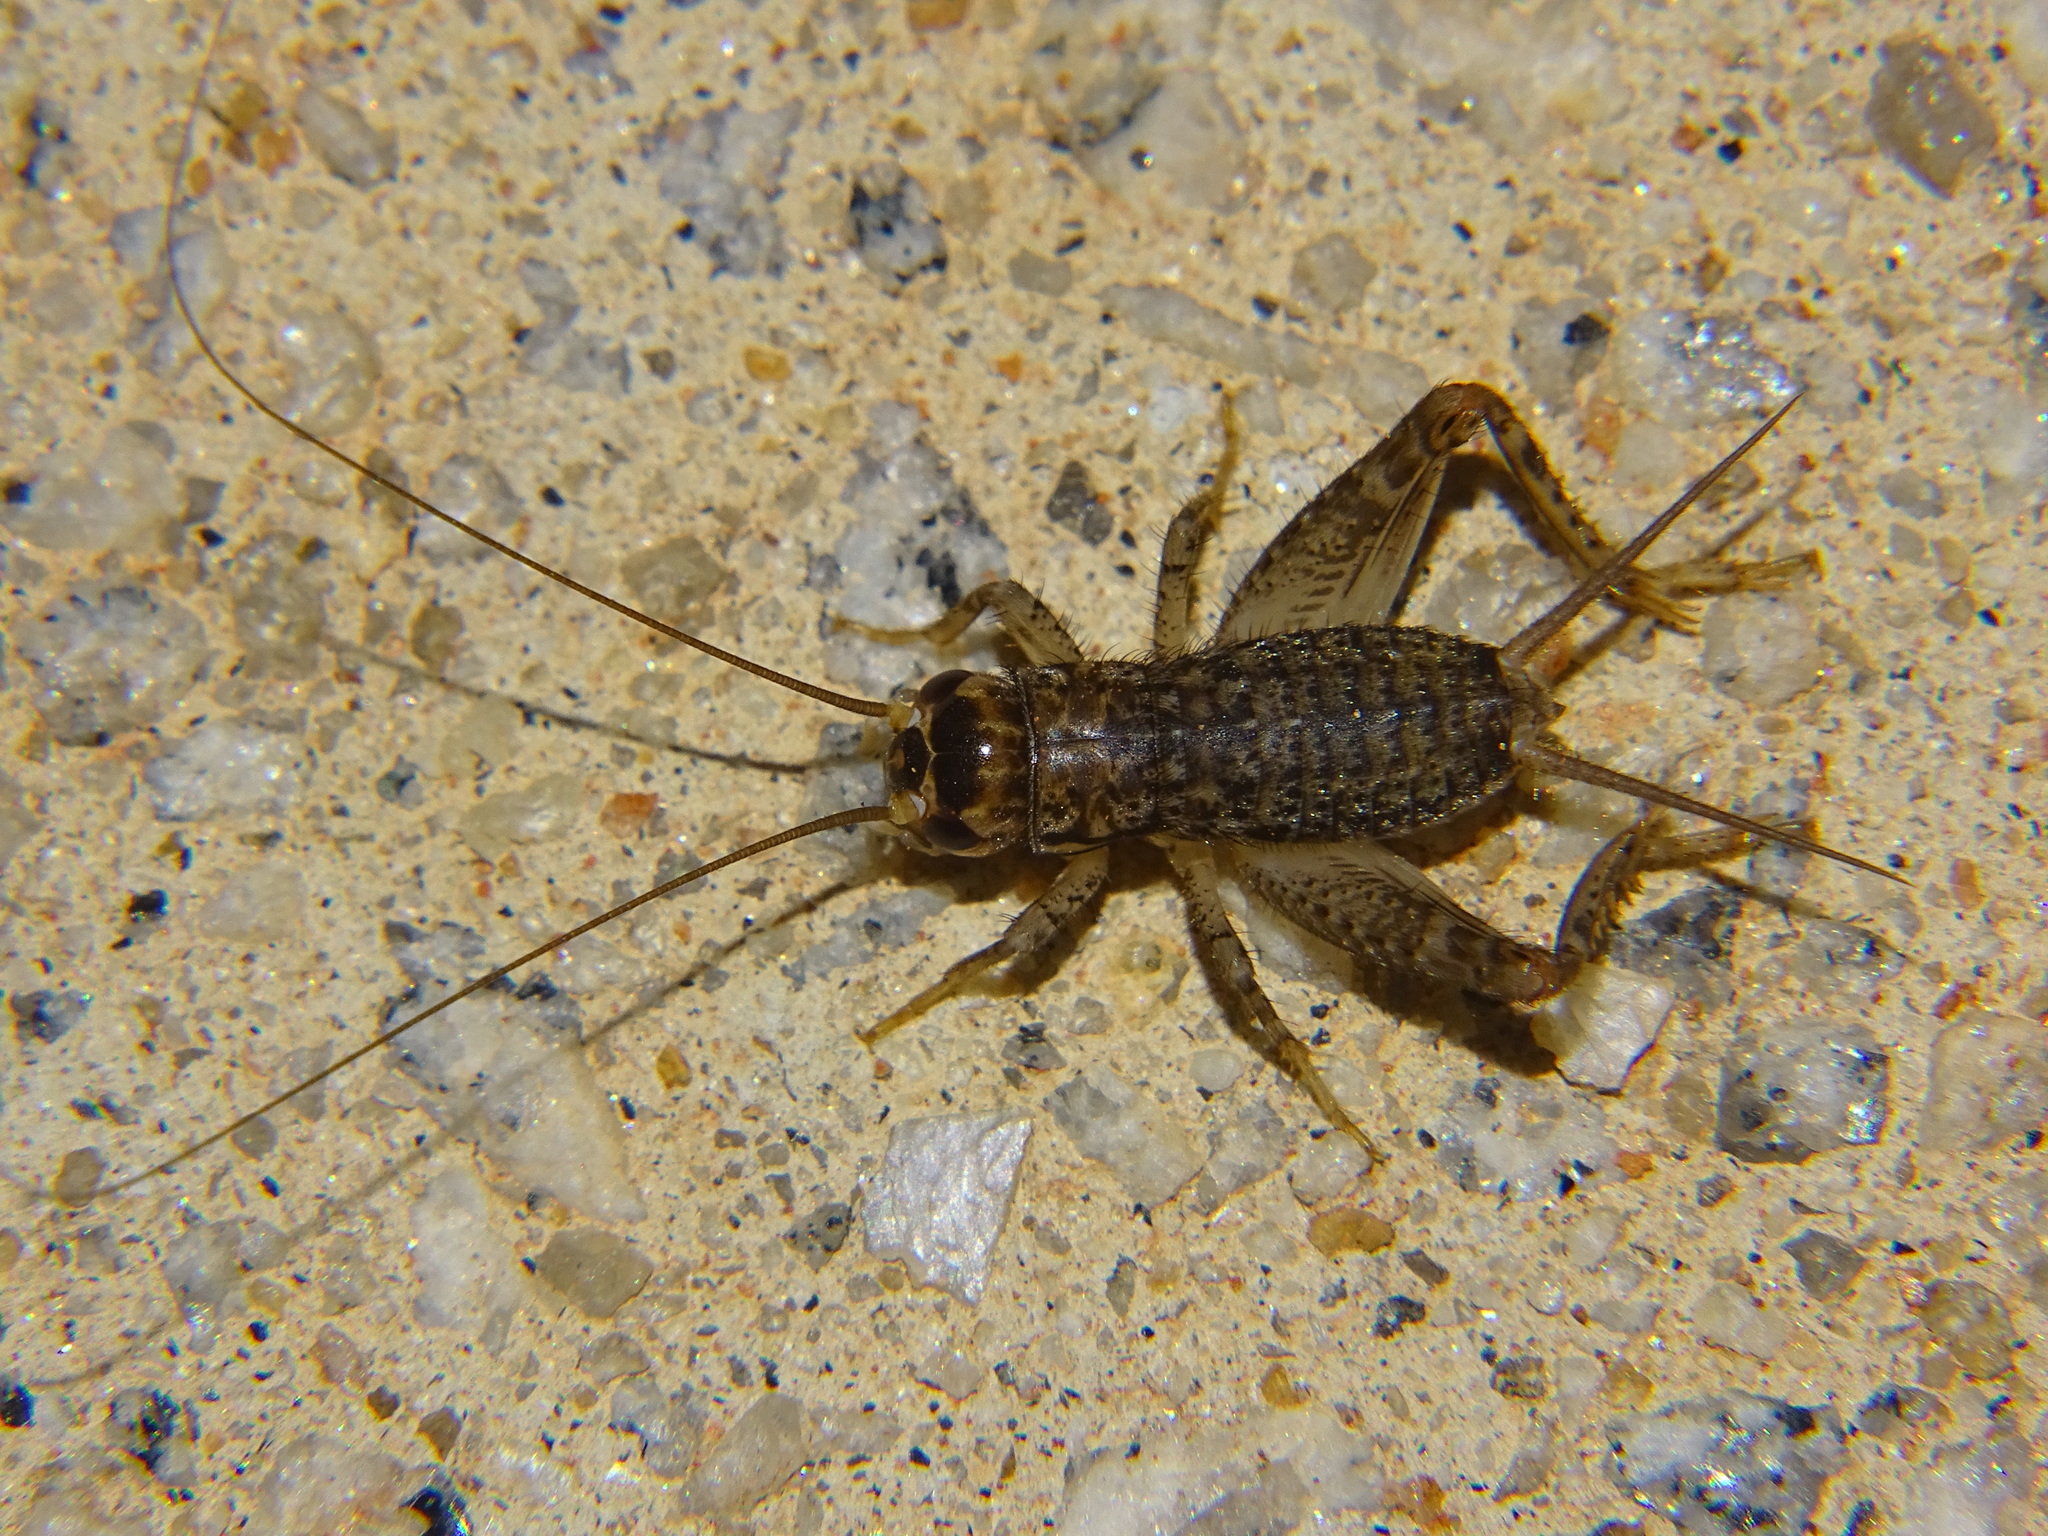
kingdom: Animalia
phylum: Arthropoda
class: Insecta
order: Orthoptera
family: Gryllidae
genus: Velarifictorus
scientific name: Velarifictorus micado
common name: Japanese burrowing cricket
